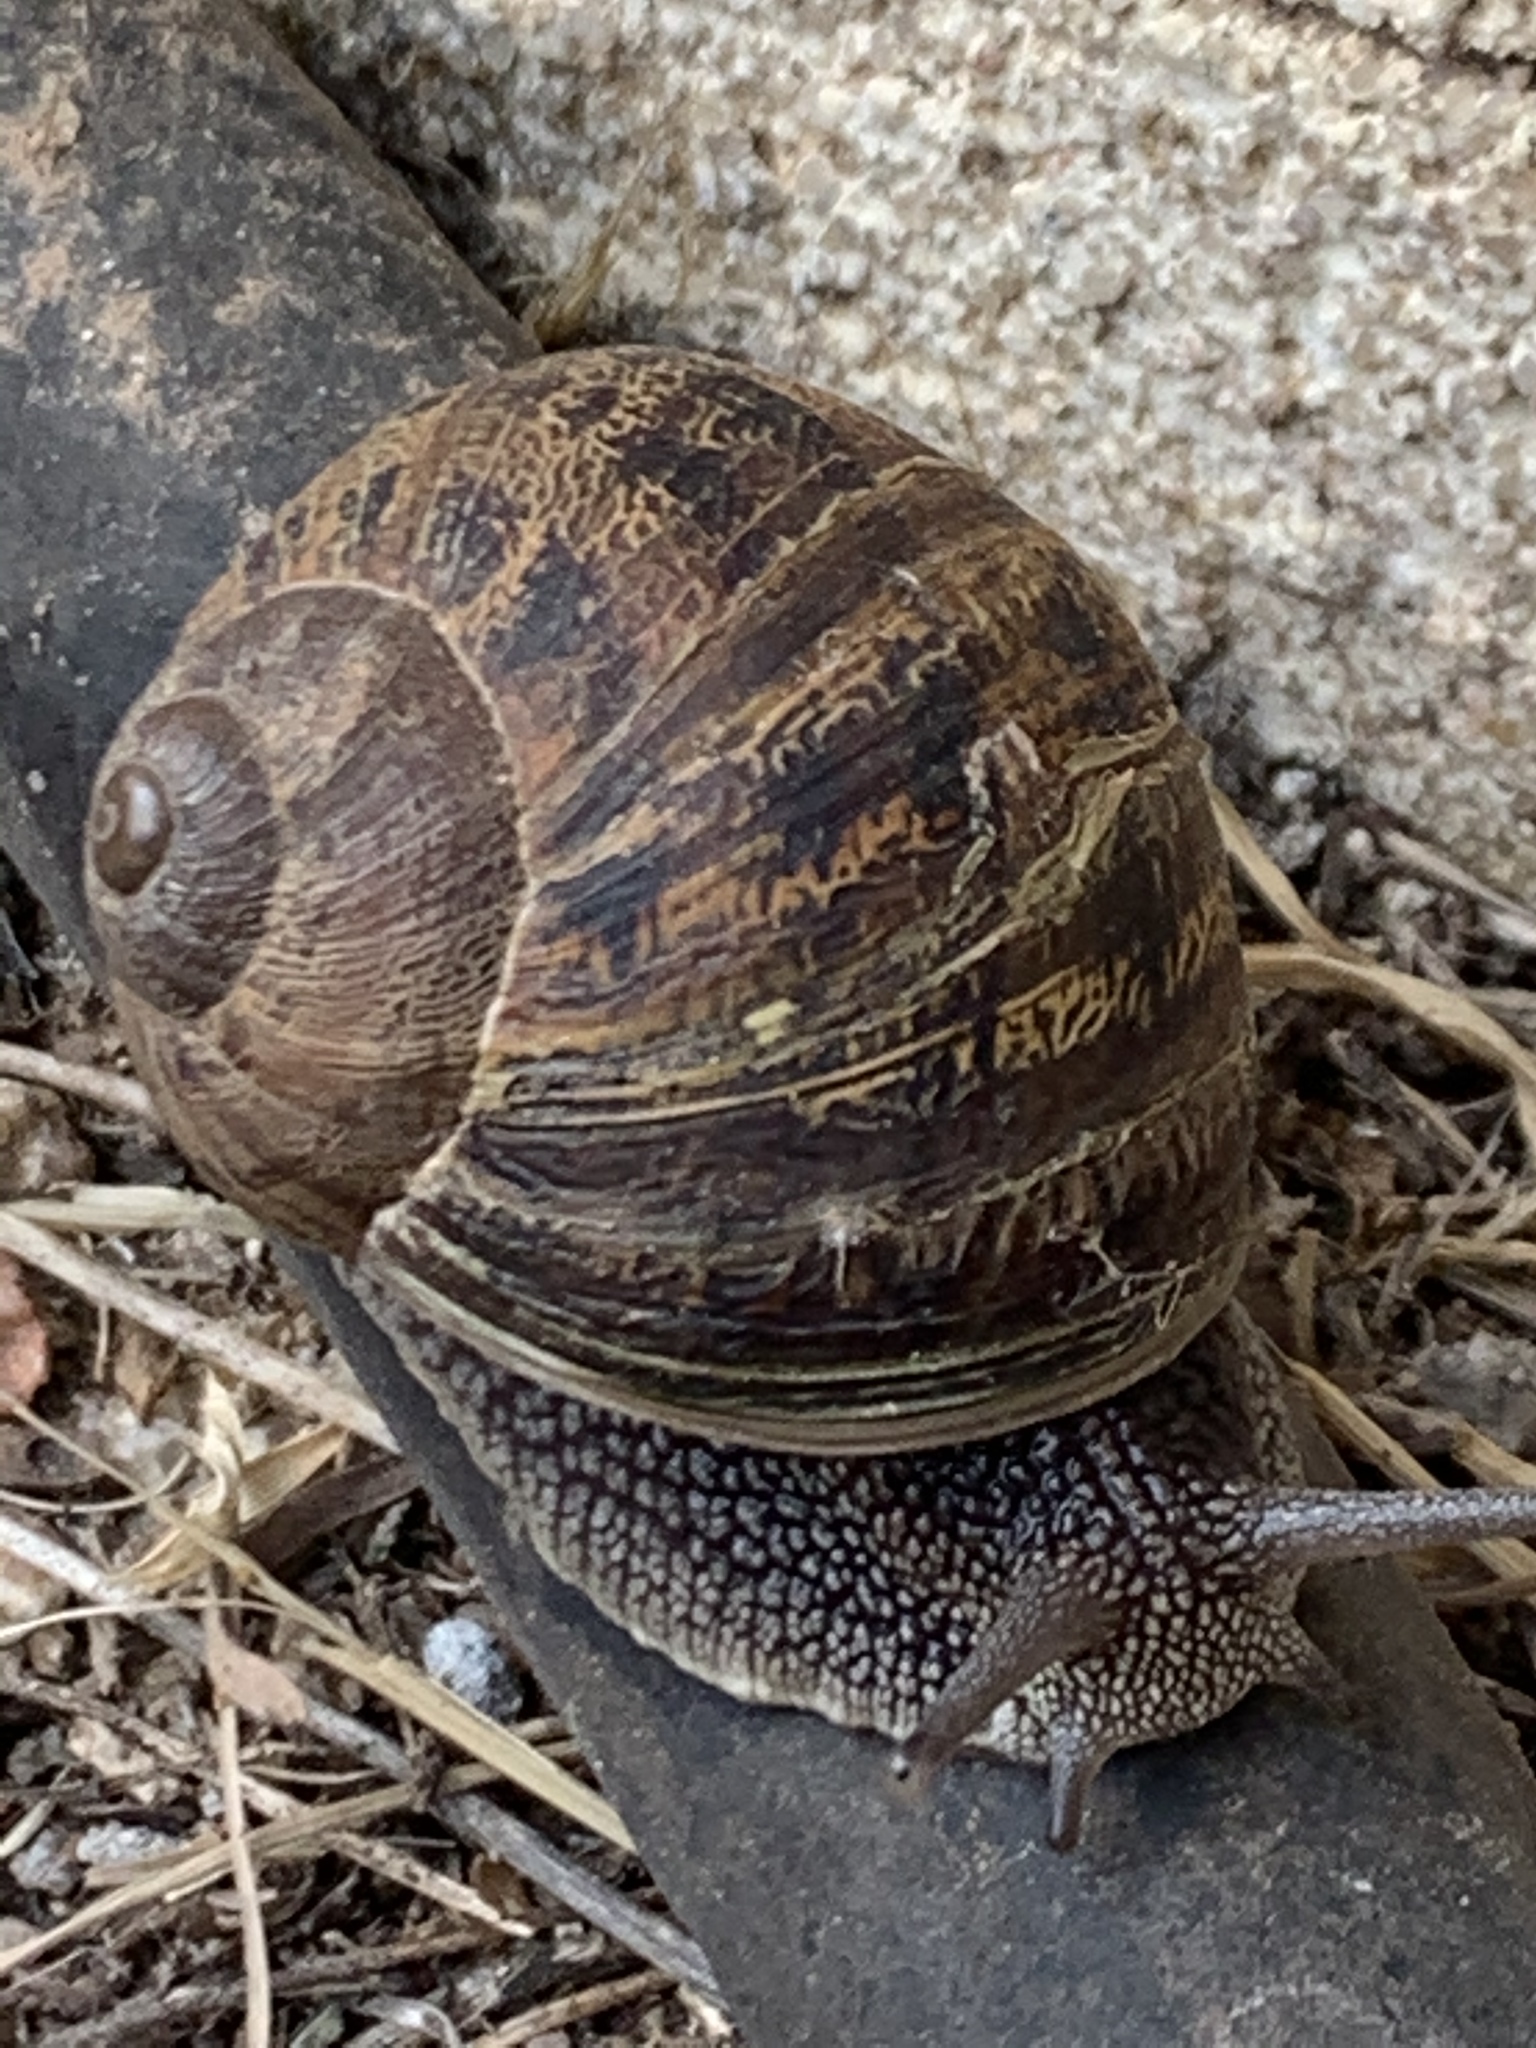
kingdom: Animalia
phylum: Mollusca
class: Gastropoda
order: Stylommatophora
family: Helicidae
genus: Cornu
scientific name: Cornu aspersum
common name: Brown garden snail
